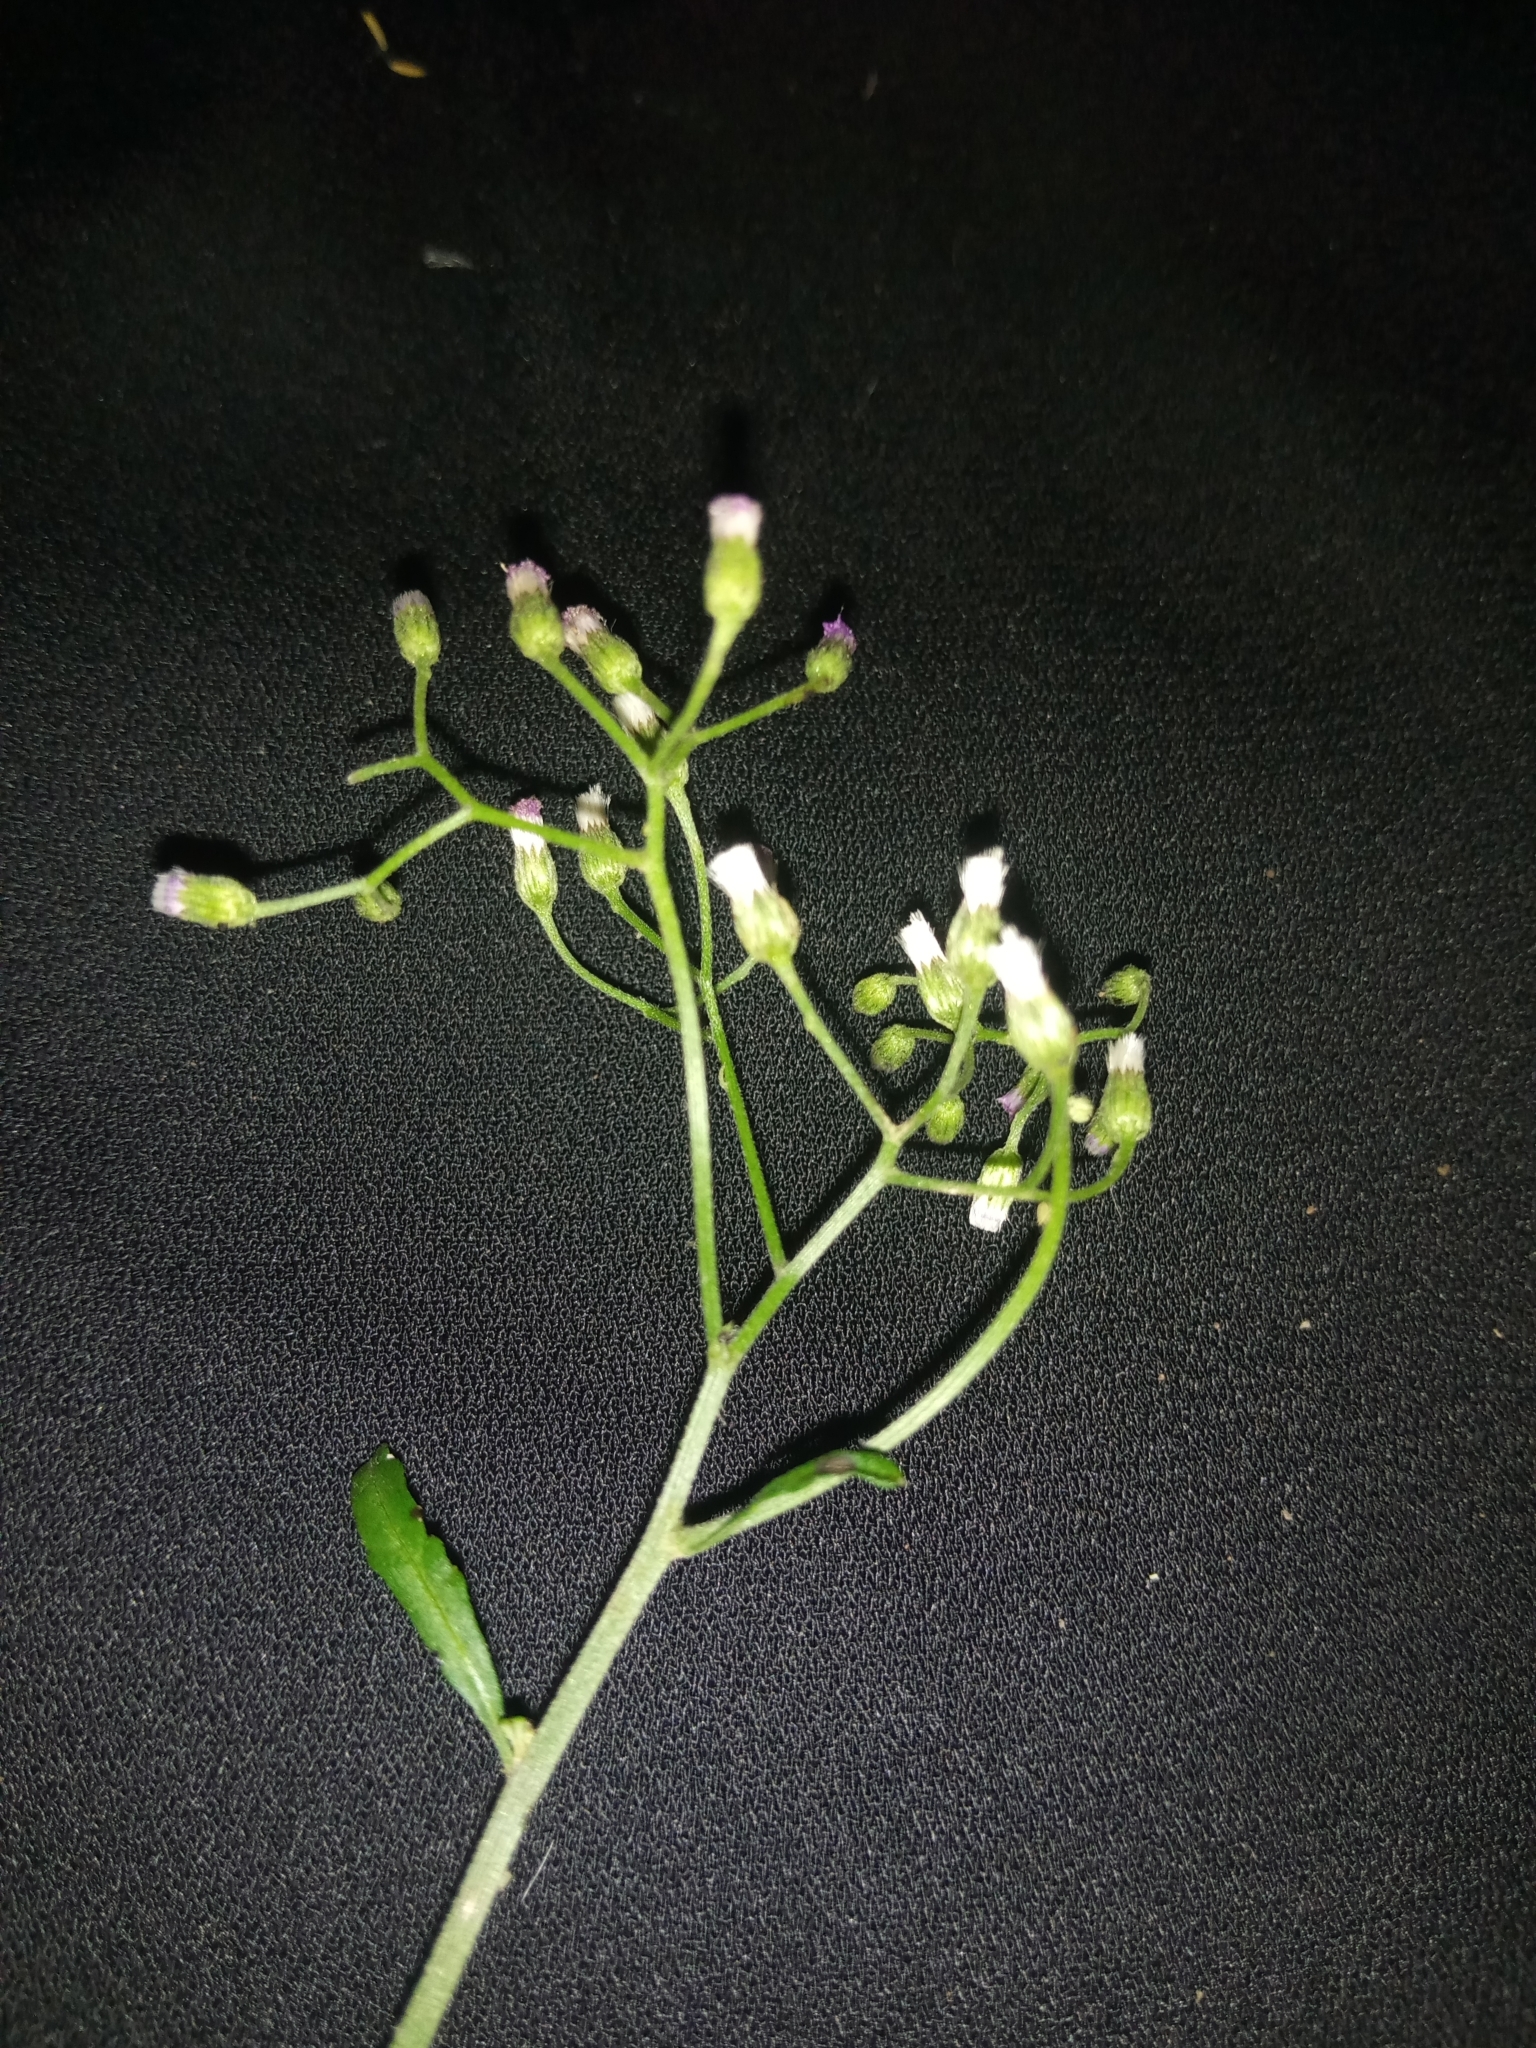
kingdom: Plantae
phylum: Tracheophyta
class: Magnoliopsida
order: Asterales
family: Asteraceae
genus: Cyanthillium
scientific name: Cyanthillium cinereum
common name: Little ironweed
